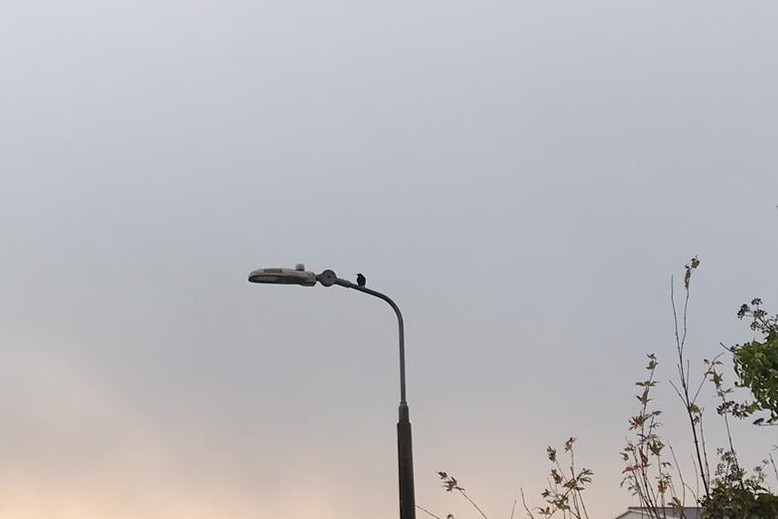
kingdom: Animalia
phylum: Chordata
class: Aves
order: Passeriformes
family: Sturnidae
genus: Sturnus
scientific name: Sturnus vulgaris
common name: Common starling
